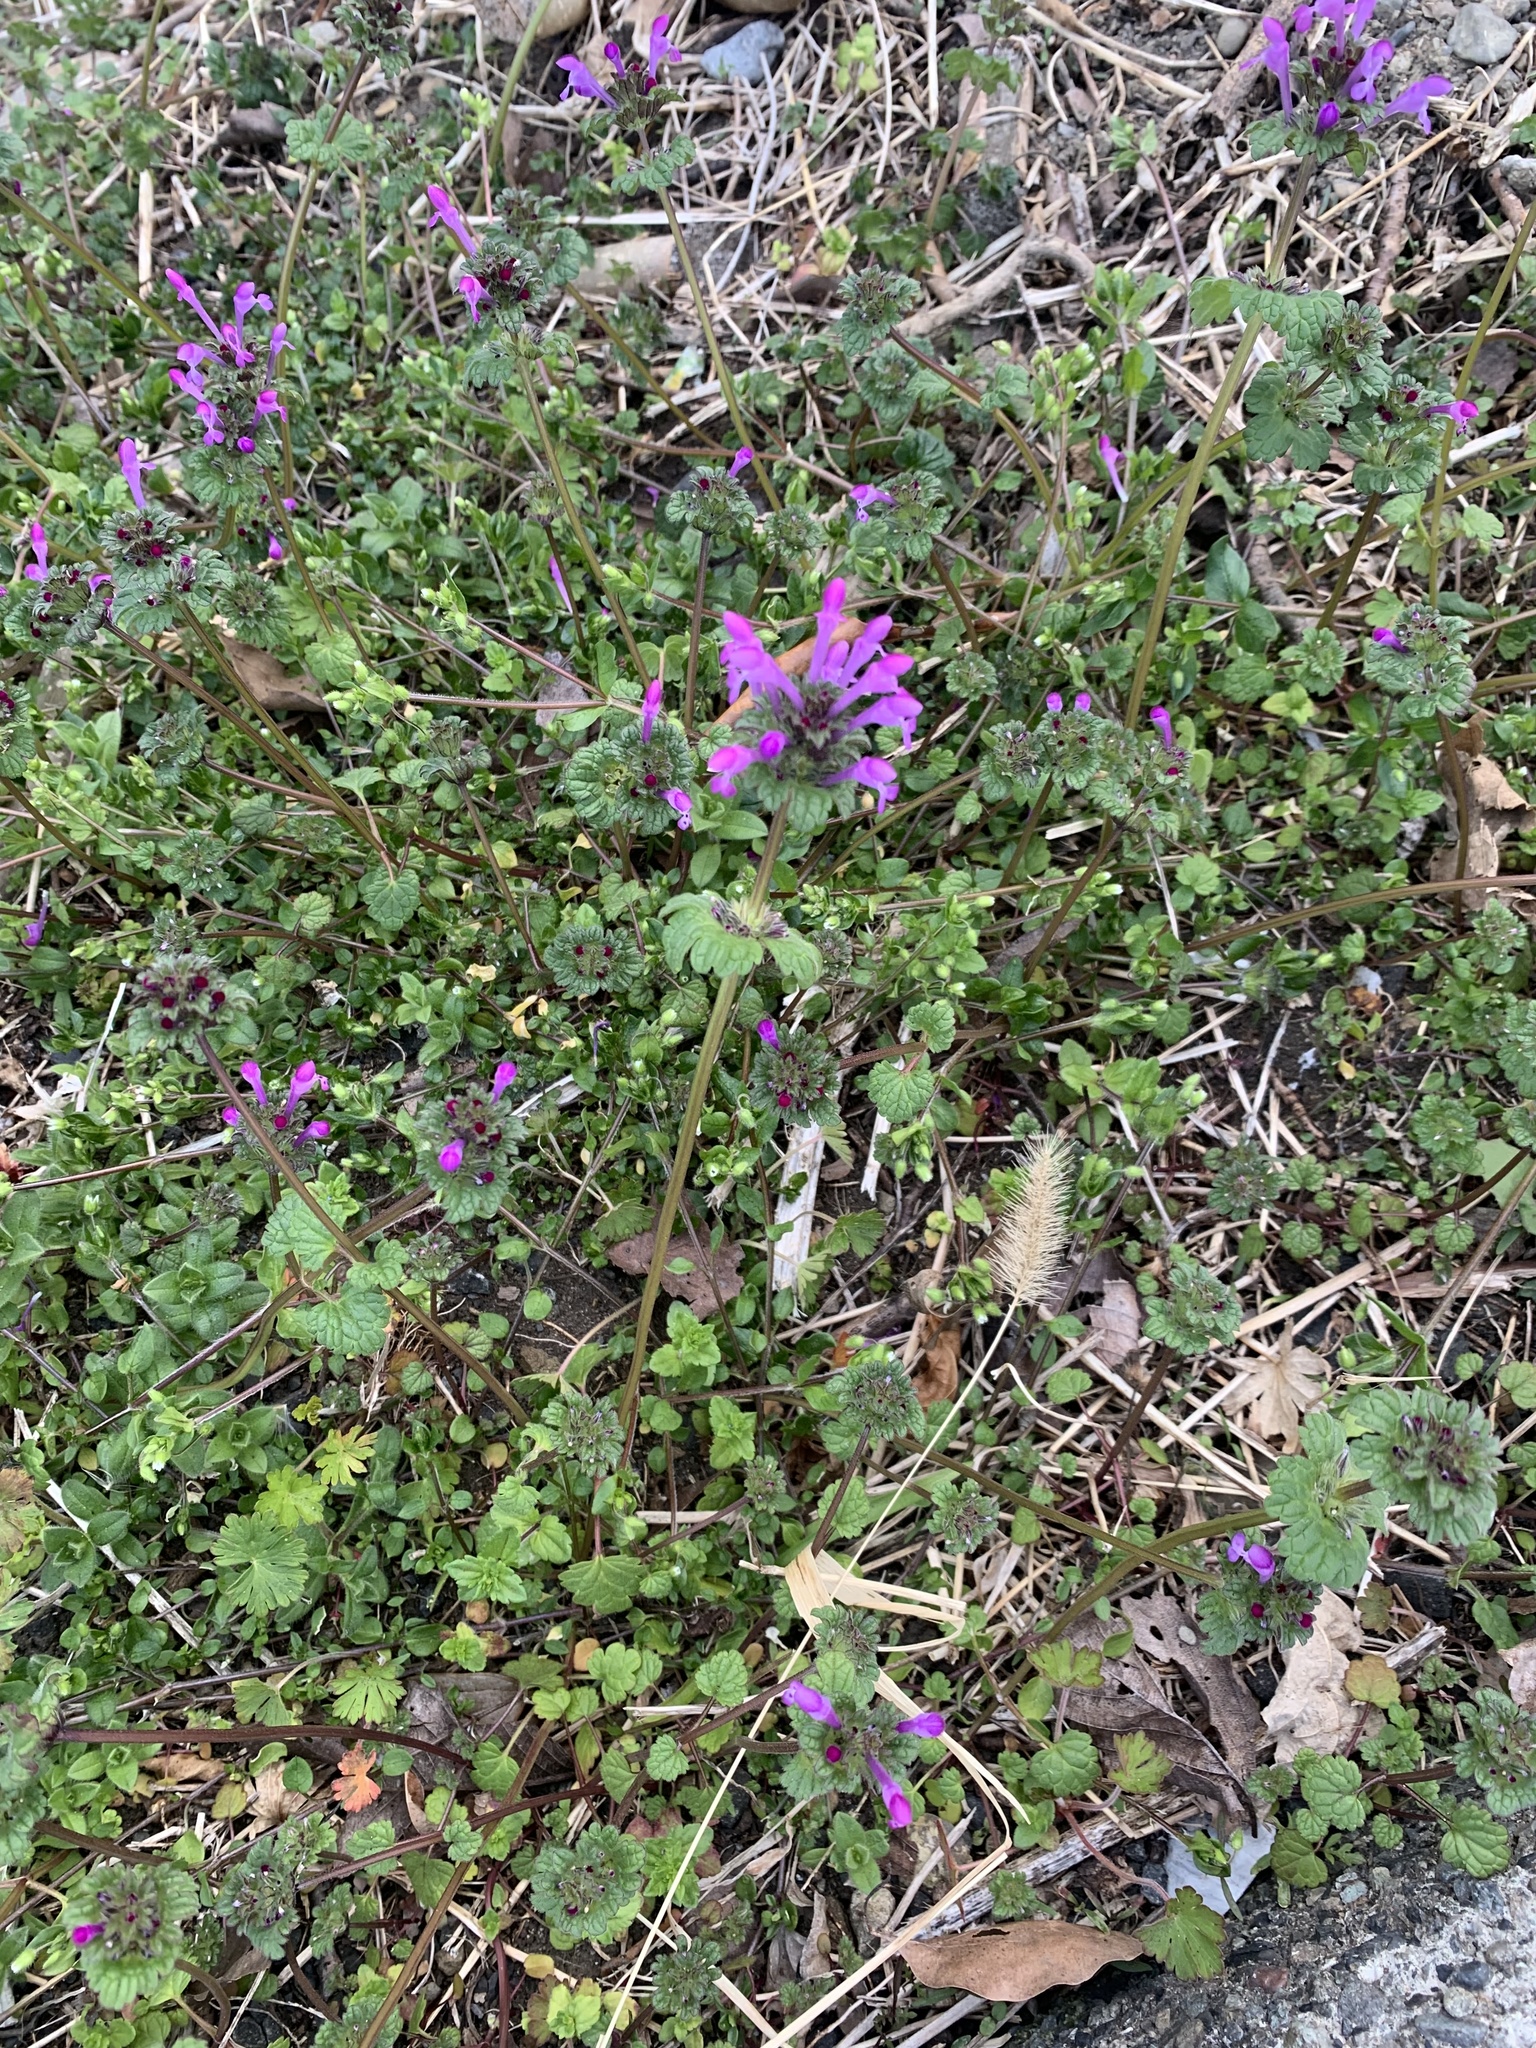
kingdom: Plantae
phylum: Tracheophyta
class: Magnoliopsida
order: Lamiales
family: Lamiaceae
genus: Lamium
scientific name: Lamium amplexicaule
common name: Henbit dead-nettle
